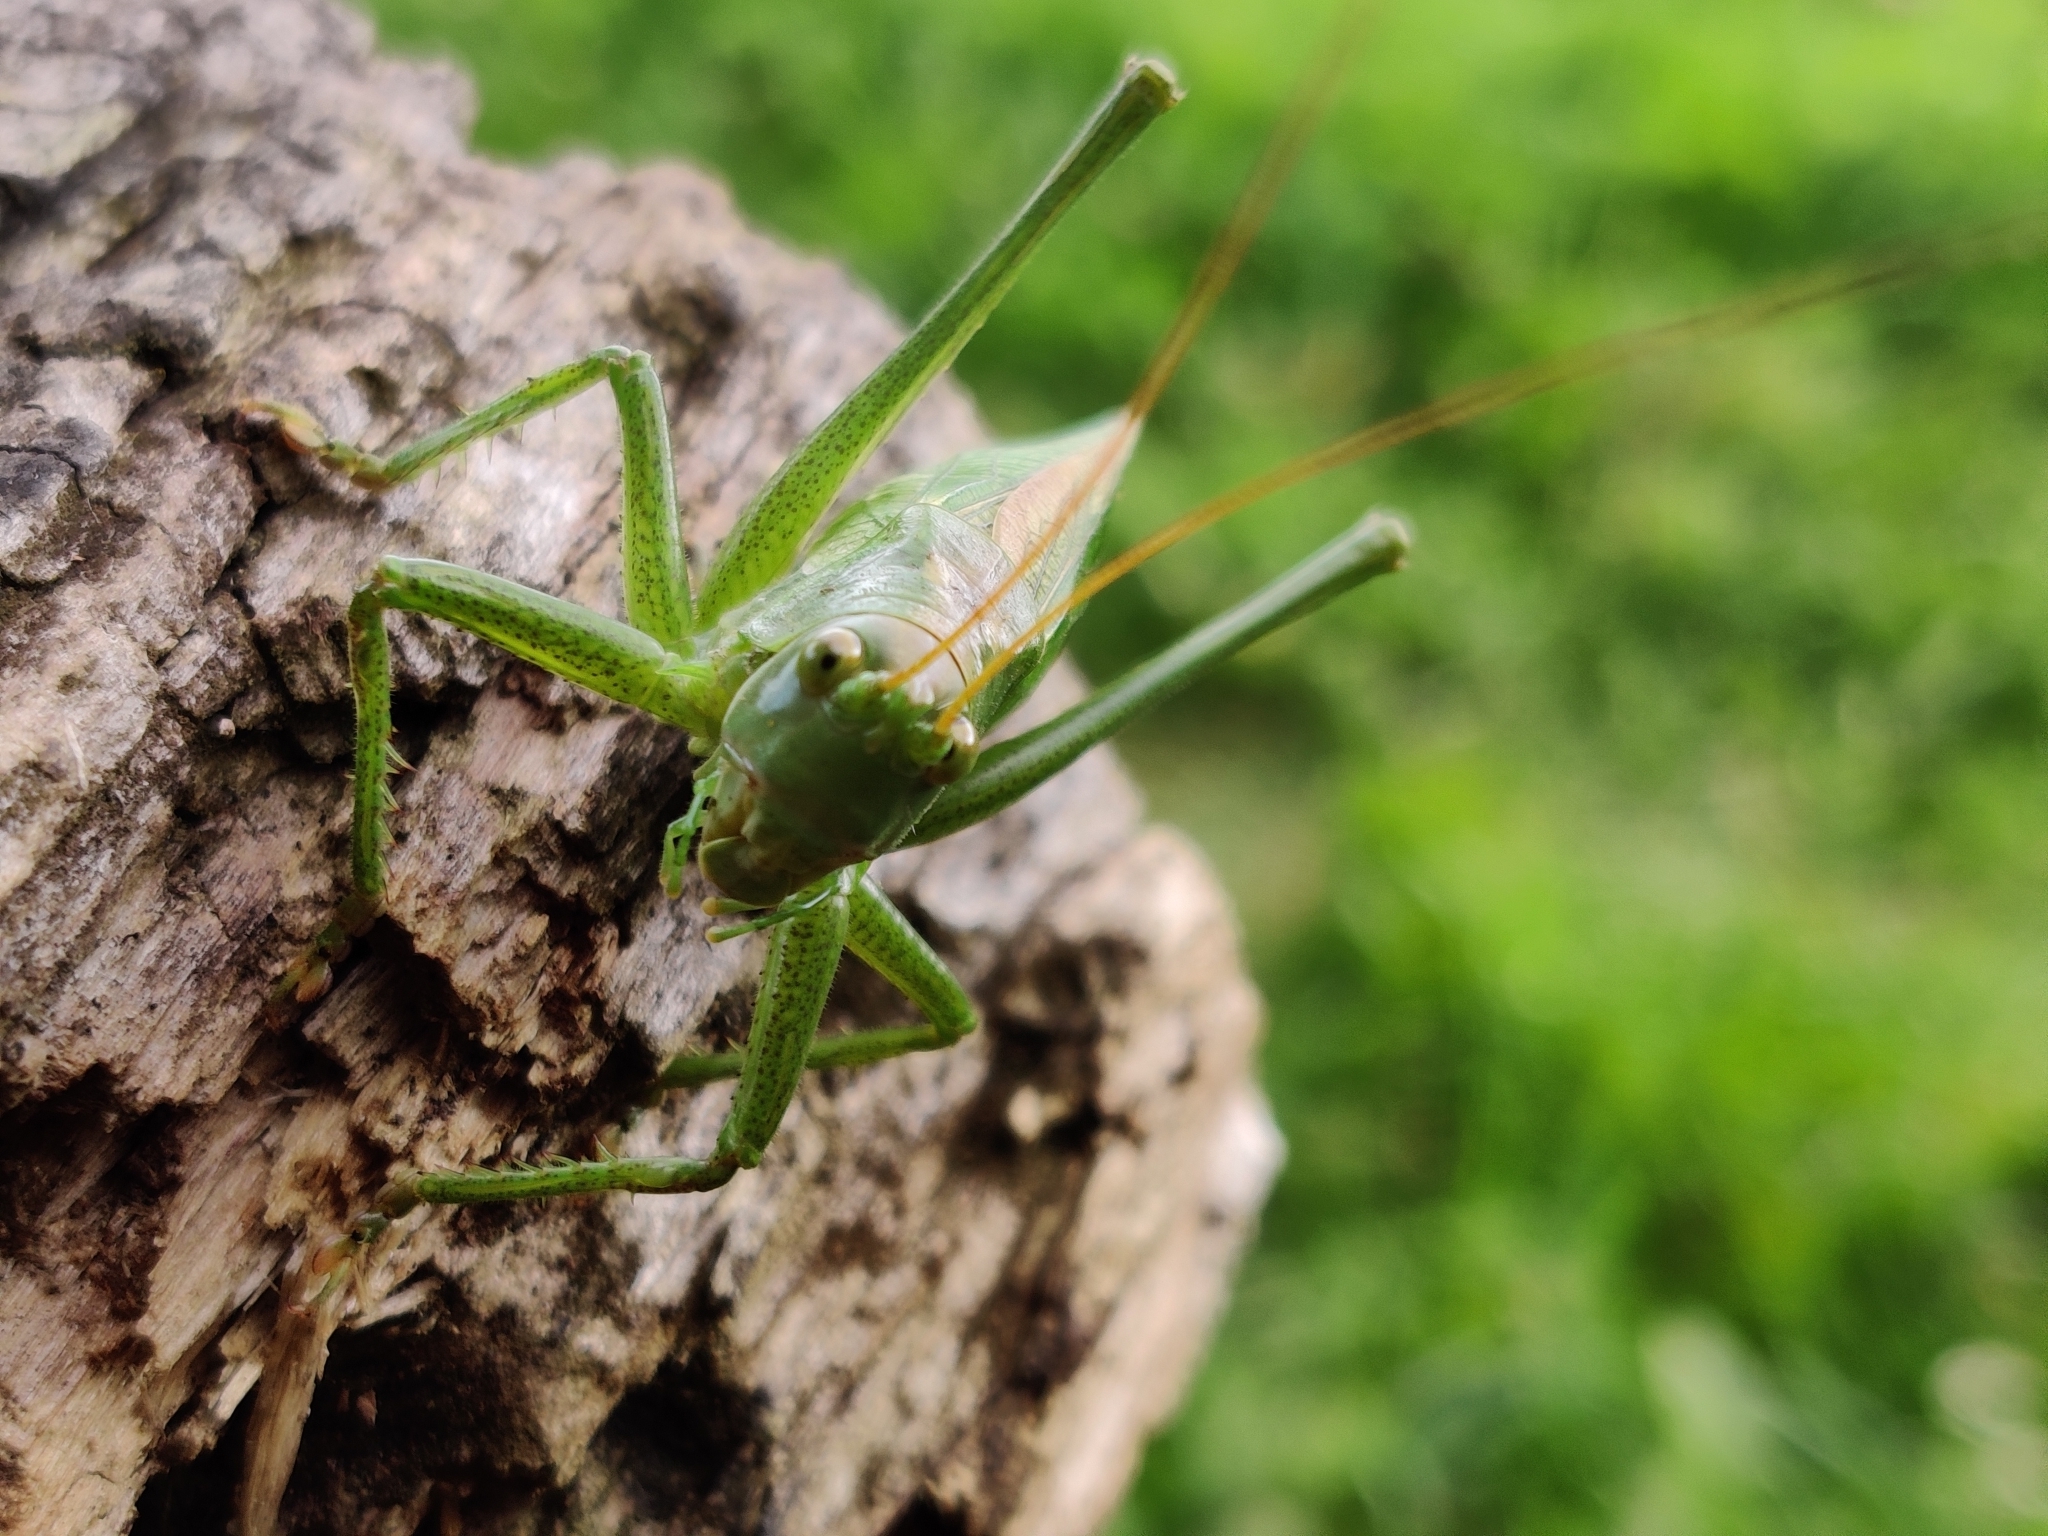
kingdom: Animalia
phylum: Arthropoda
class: Insecta
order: Orthoptera
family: Tettigoniidae
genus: Tettigonia
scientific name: Tettigonia cantans
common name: Upland green bush-cricket
